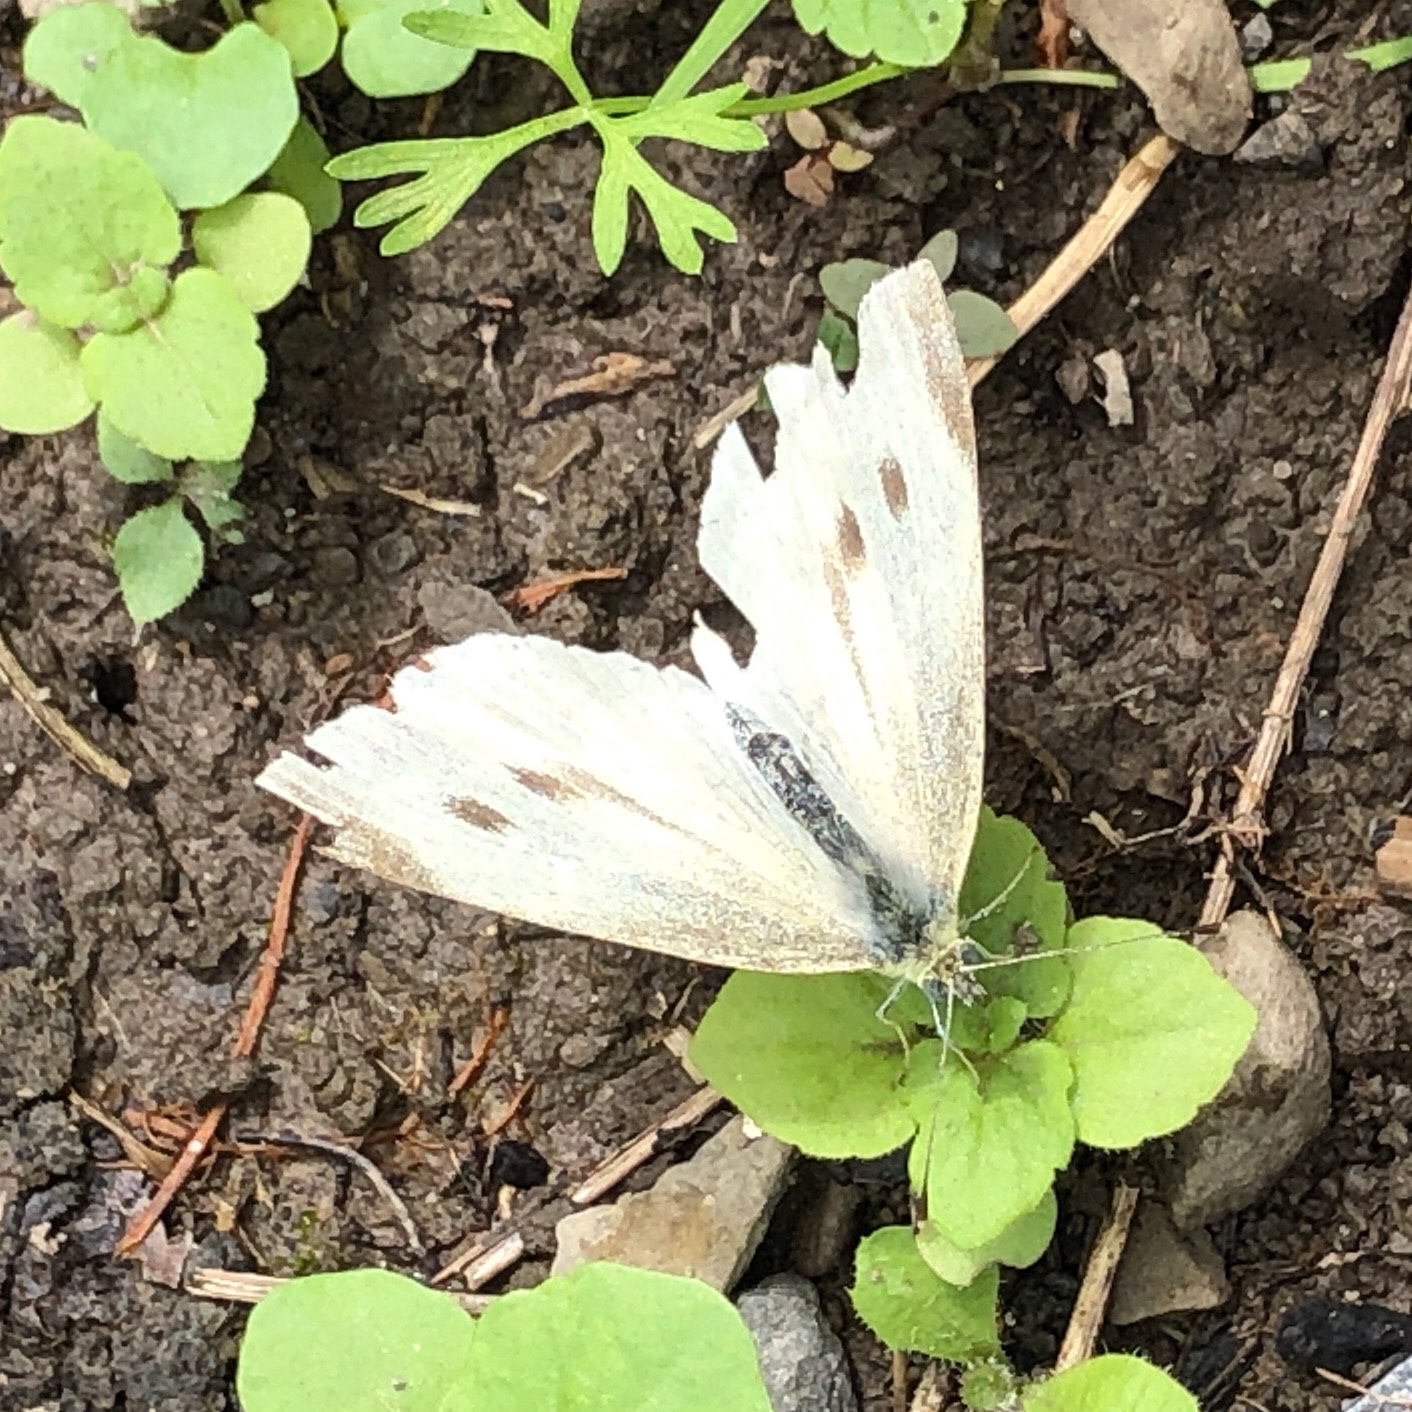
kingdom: Animalia
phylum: Arthropoda
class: Insecta
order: Lepidoptera
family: Pieridae
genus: Pieris
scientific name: Pieris rapae
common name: Small white
